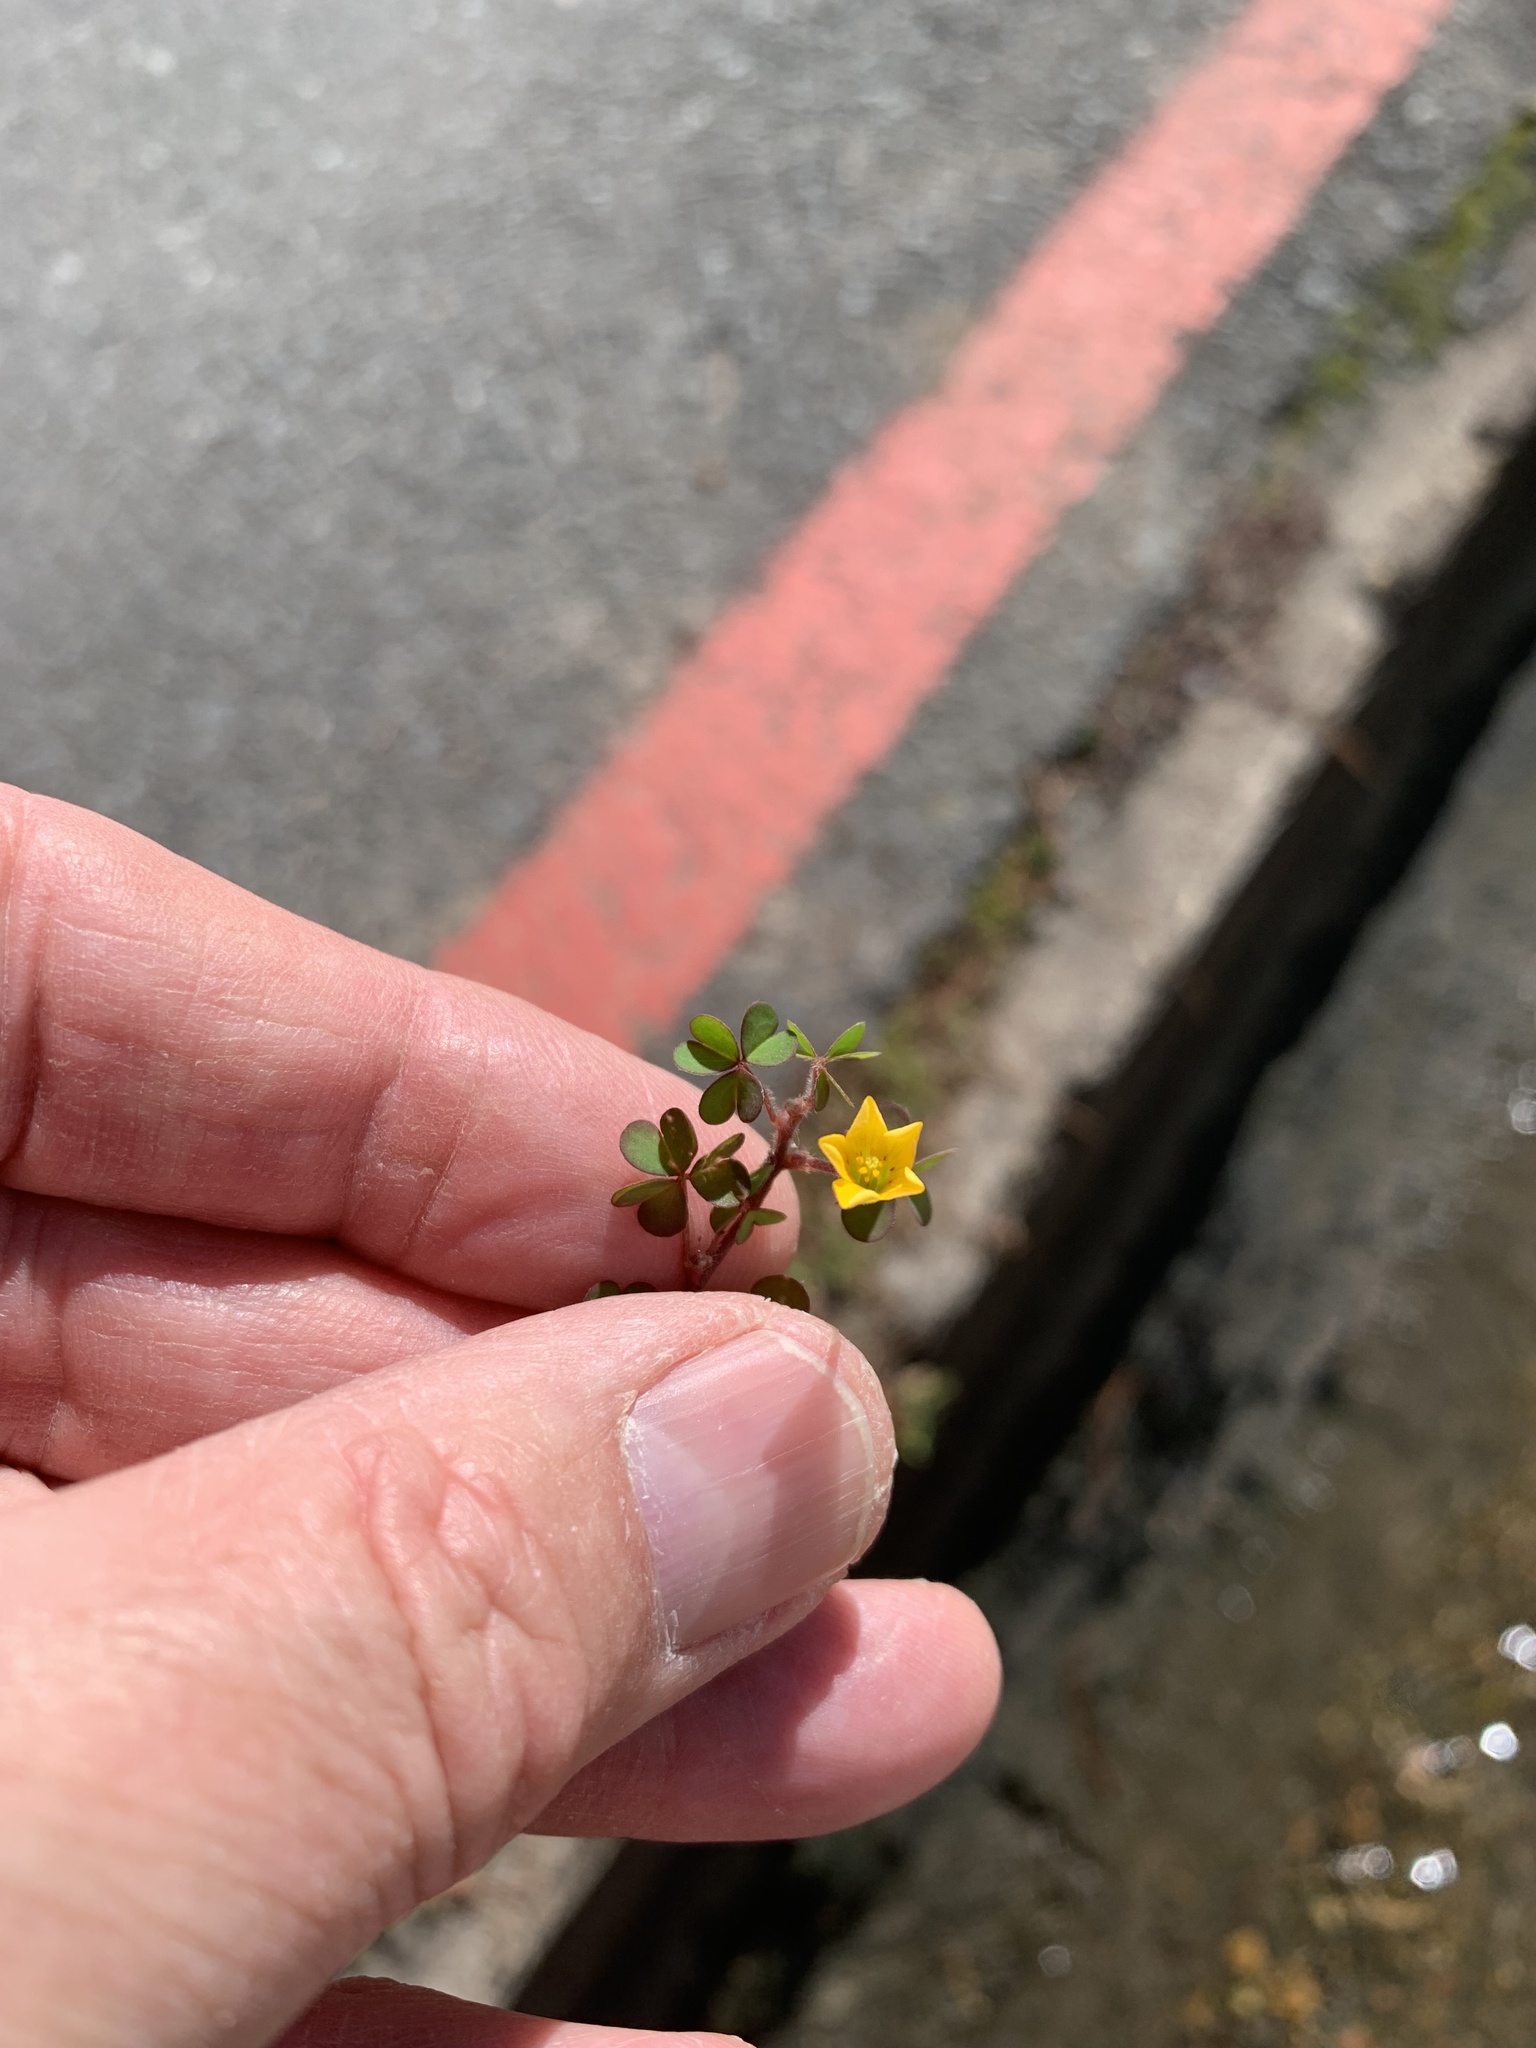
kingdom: Plantae
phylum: Tracheophyta
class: Magnoliopsida
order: Oxalidales
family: Oxalidaceae
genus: Oxalis
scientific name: Oxalis corniculata
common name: Procumbent yellow-sorrel
